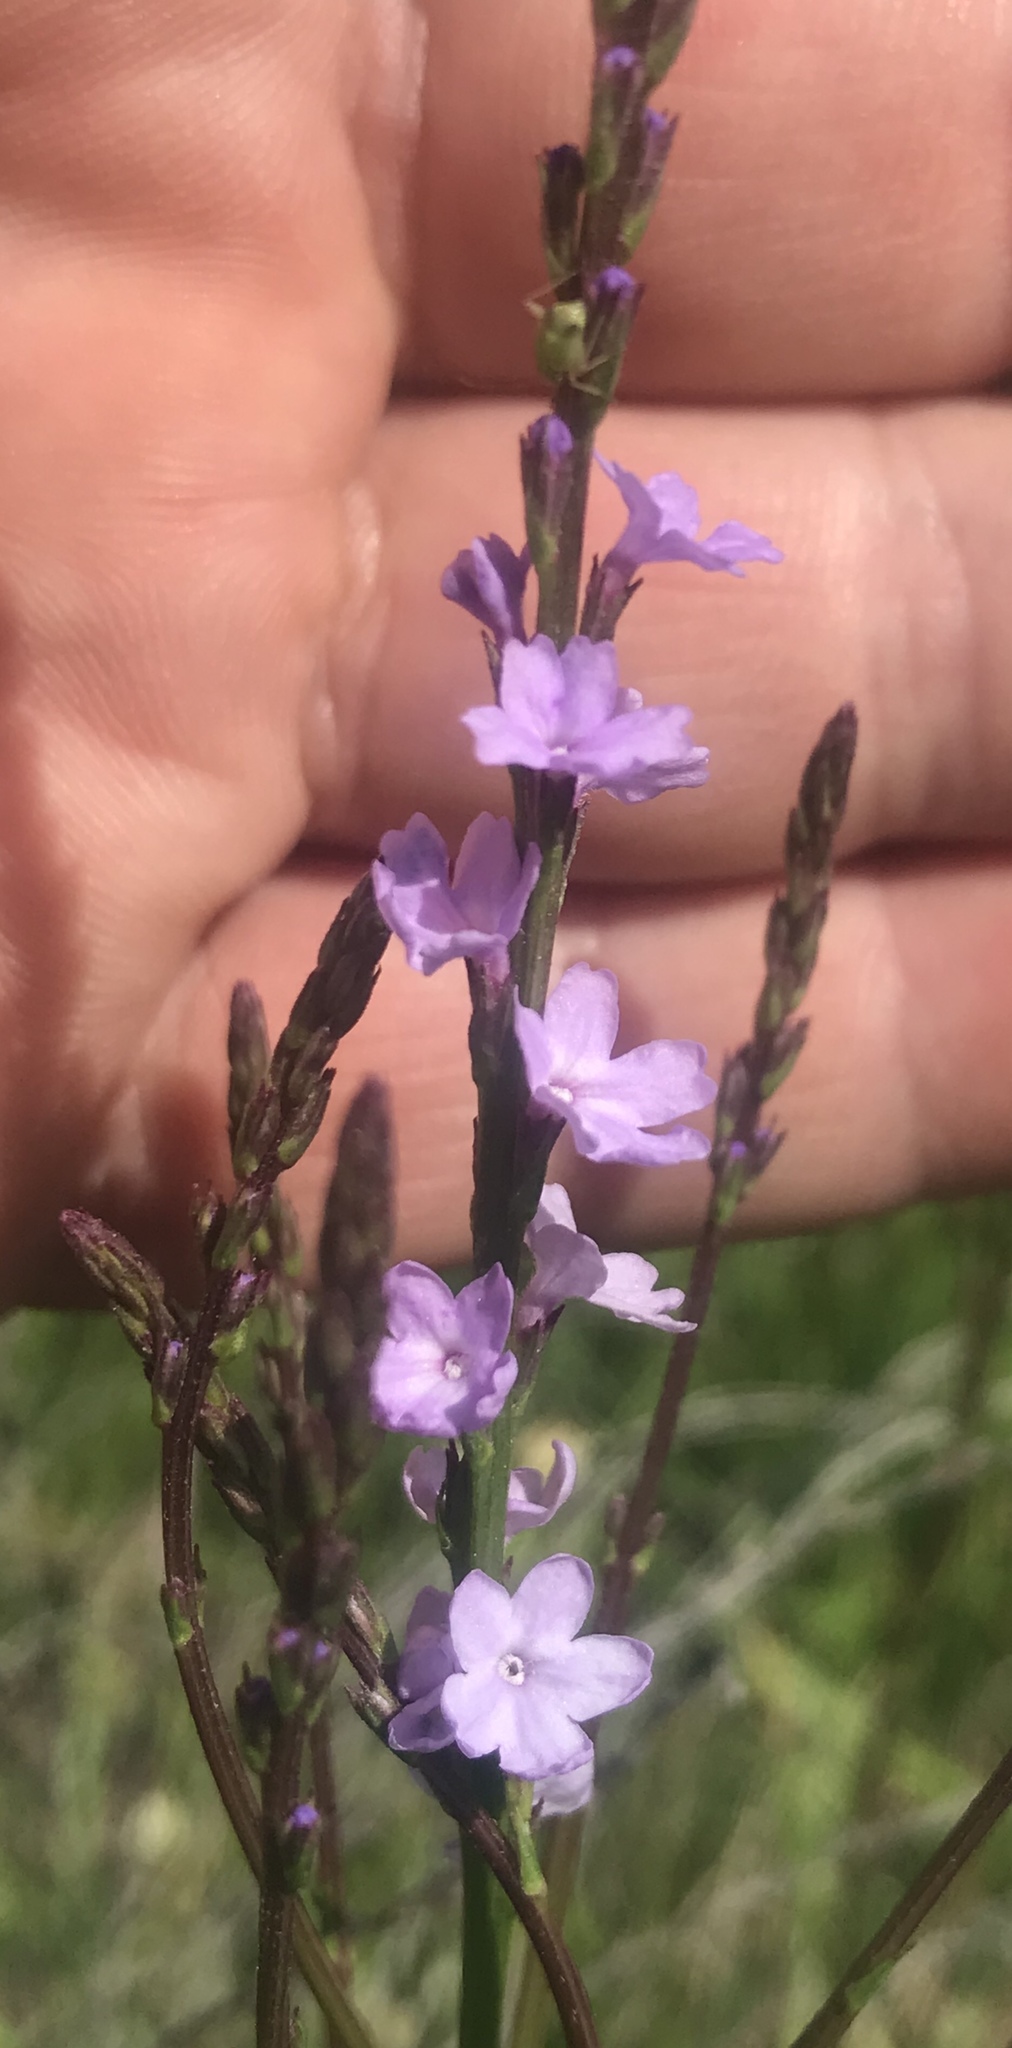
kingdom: Plantae
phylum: Tracheophyta
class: Magnoliopsida
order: Lamiales
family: Verbenaceae
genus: Verbena
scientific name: Verbena halei
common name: Texas vervain
